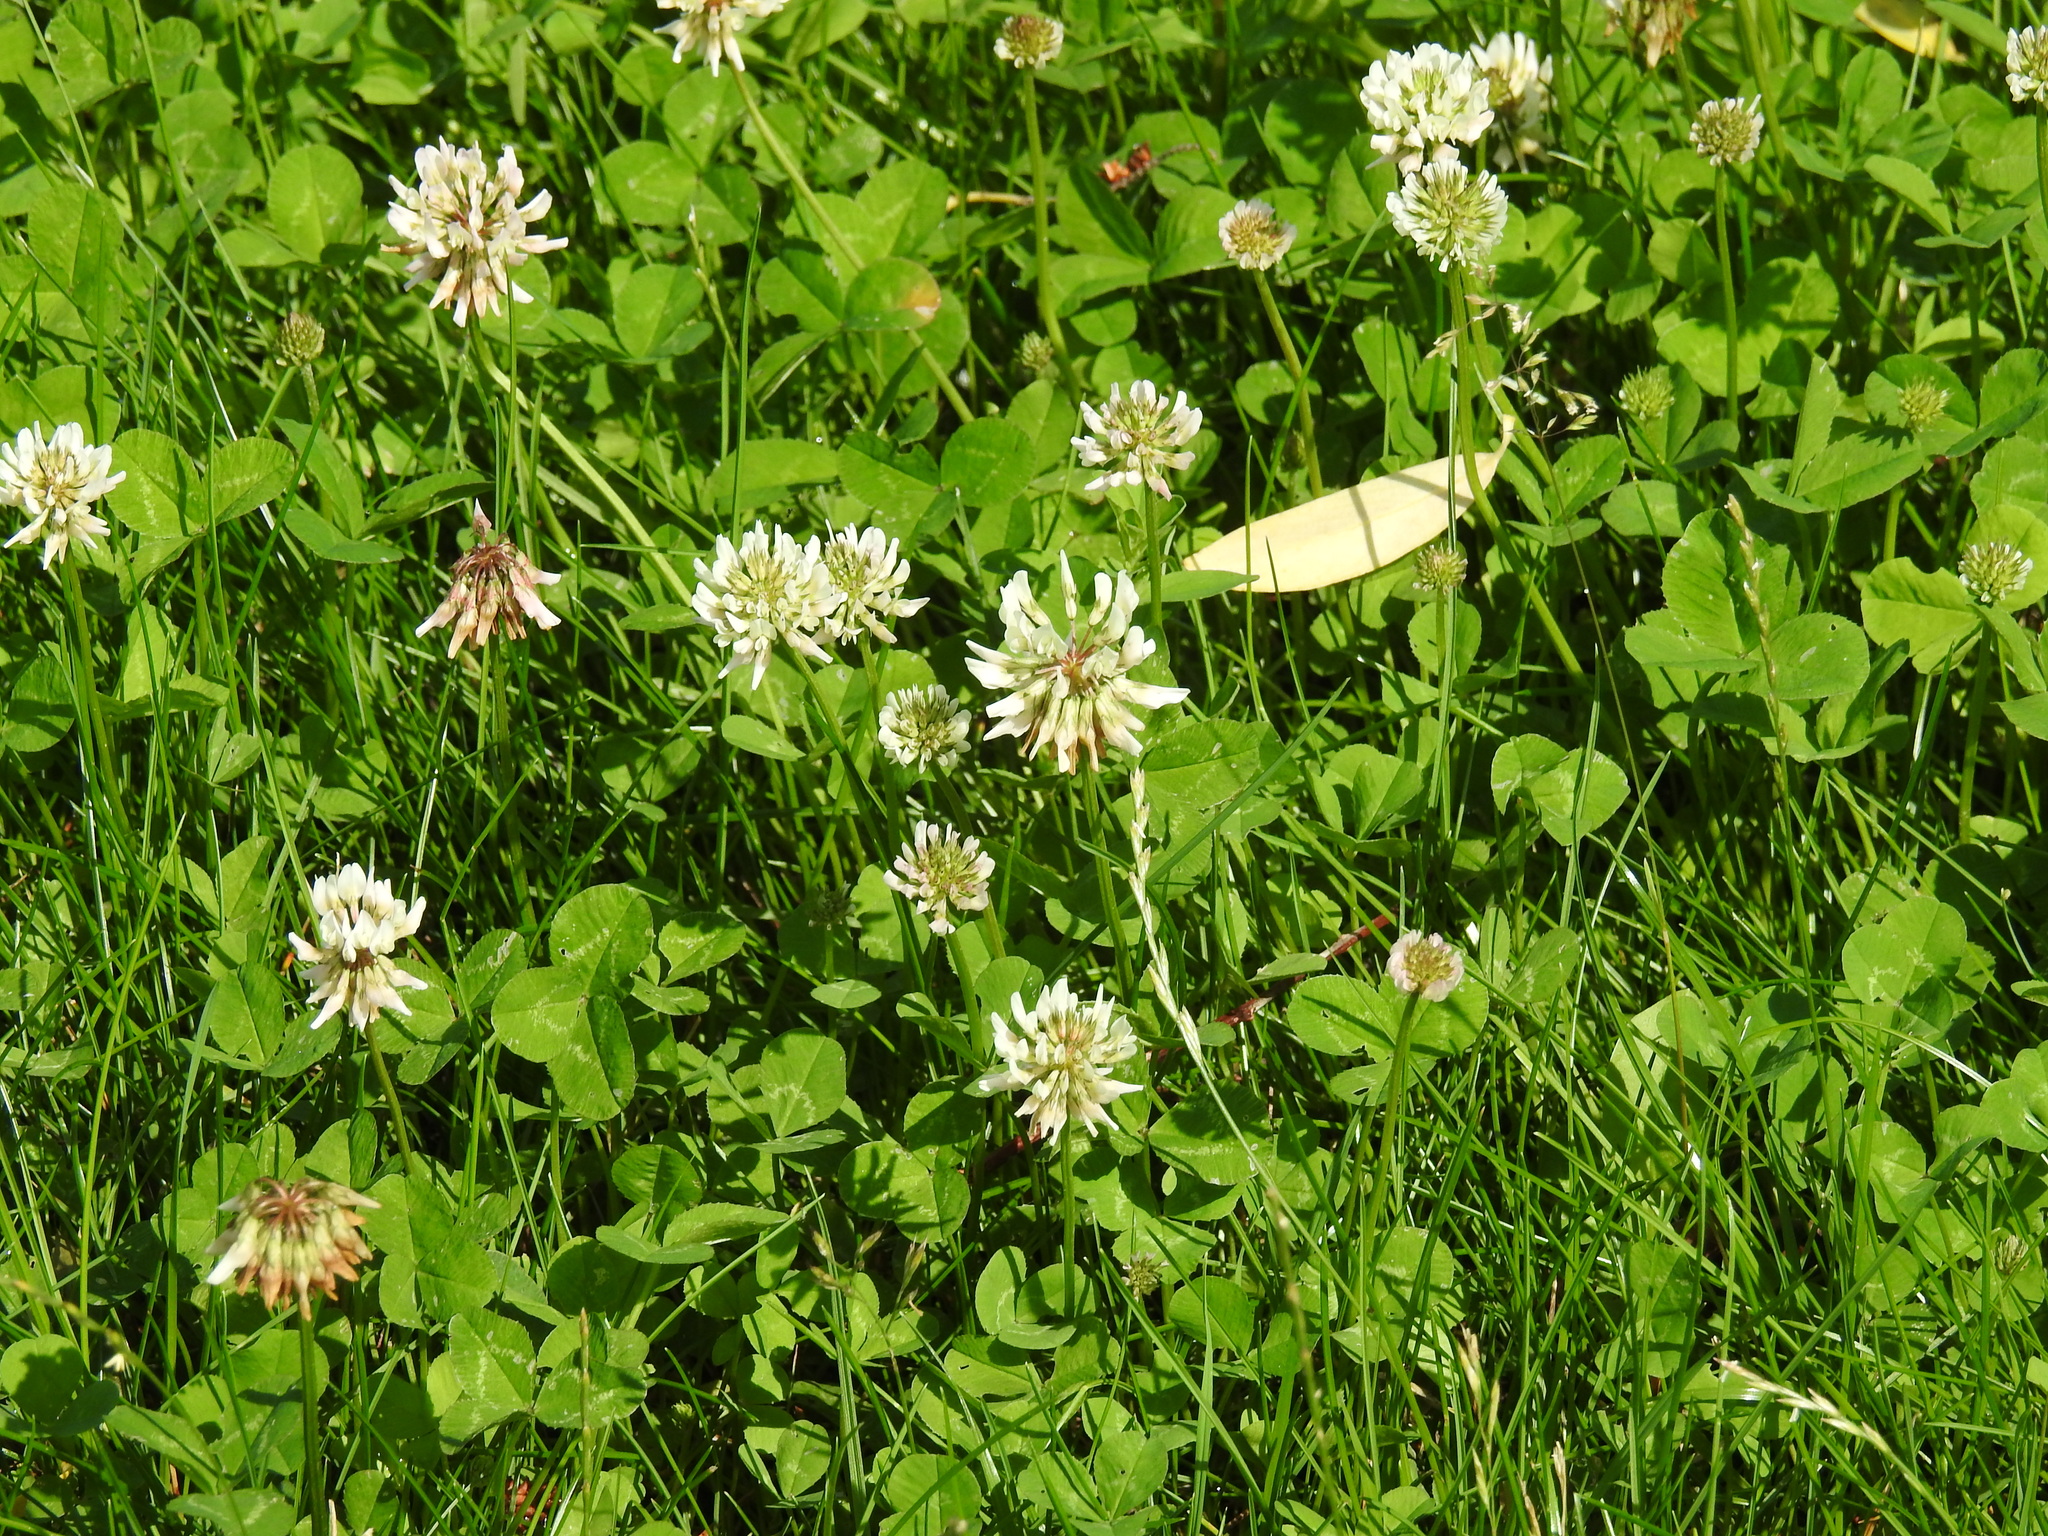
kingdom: Plantae
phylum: Tracheophyta
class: Magnoliopsida
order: Fabales
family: Fabaceae
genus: Trifolium
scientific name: Trifolium repens
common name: White clover
